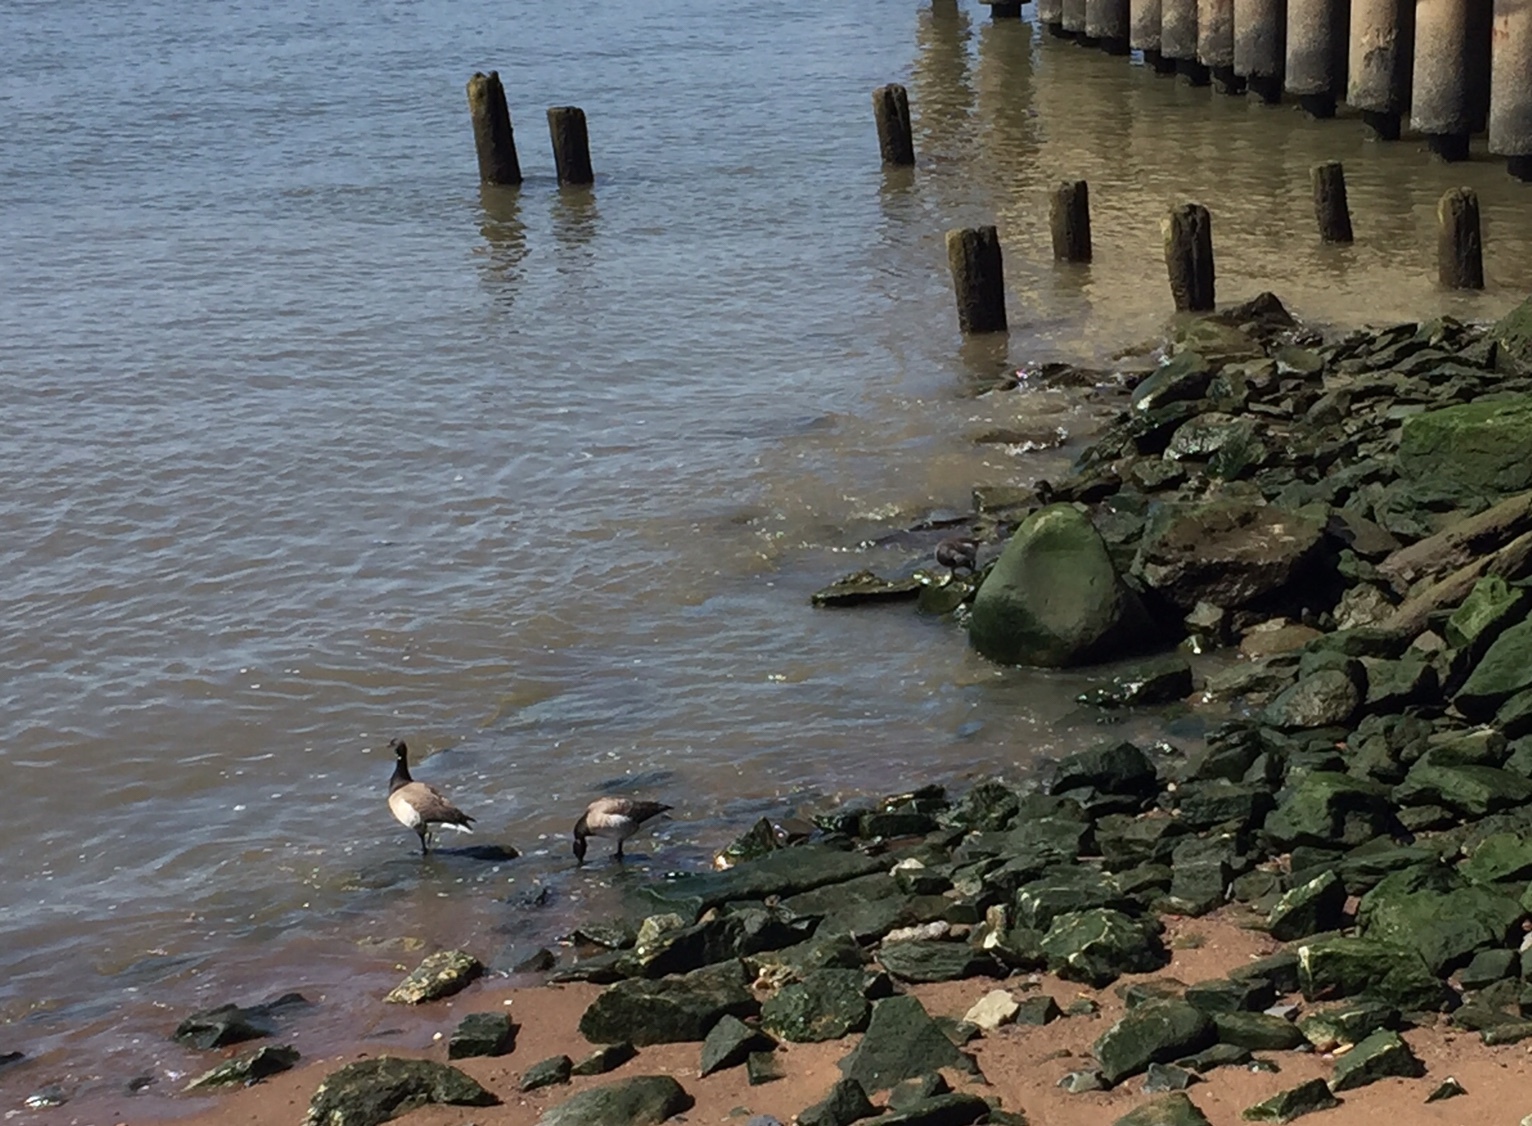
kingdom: Animalia
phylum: Chordata
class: Aves
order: Anseriformes
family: Anatidae
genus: Branta
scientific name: Branta bernicla
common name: Brant goose
